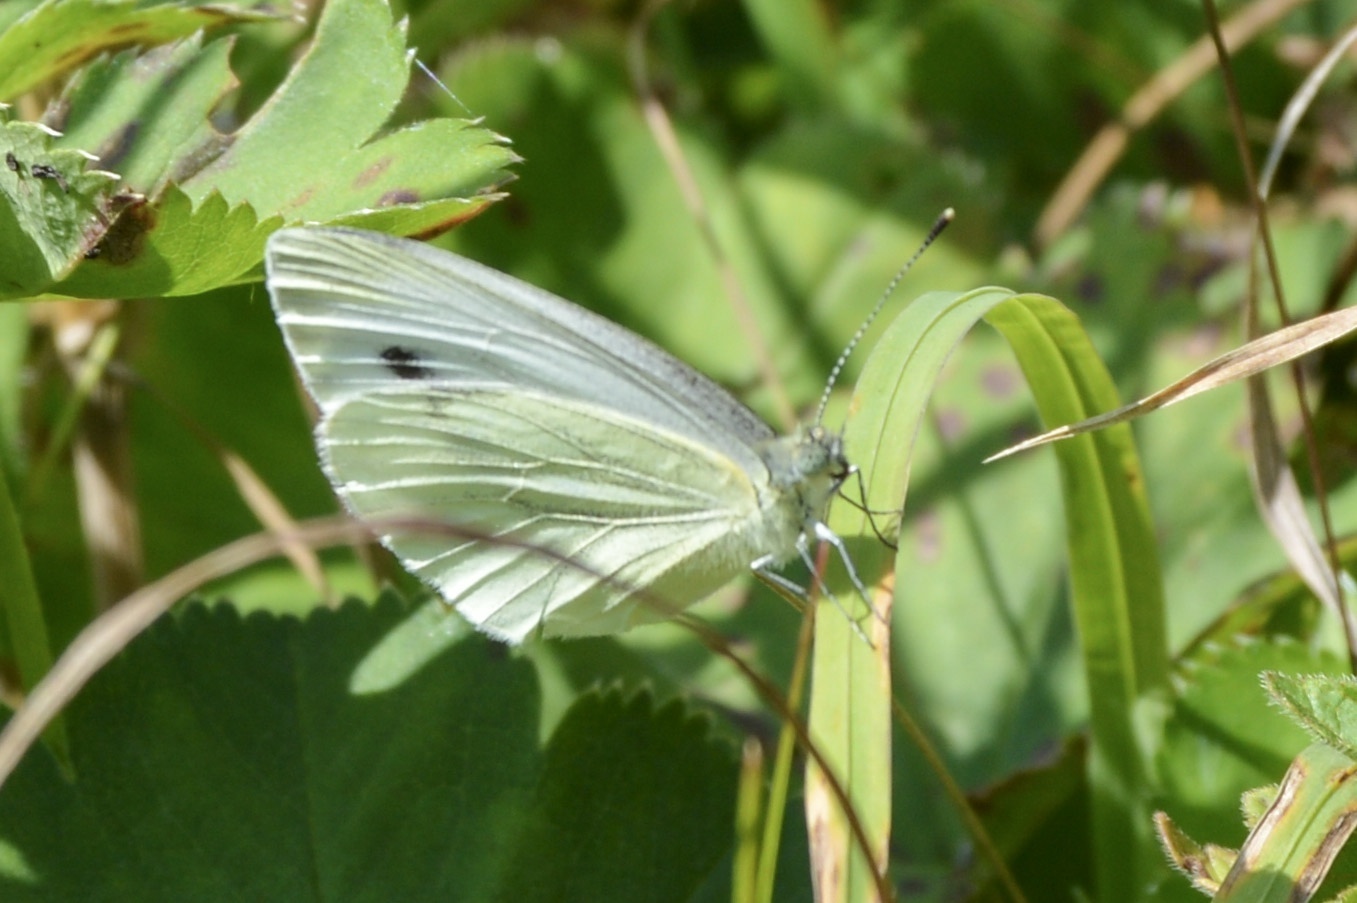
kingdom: Animalia
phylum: Arthropoda
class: Insecta
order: Lepidoptera
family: Pieridae
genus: Pieris
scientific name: Pieris napi
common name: Green-veined white
